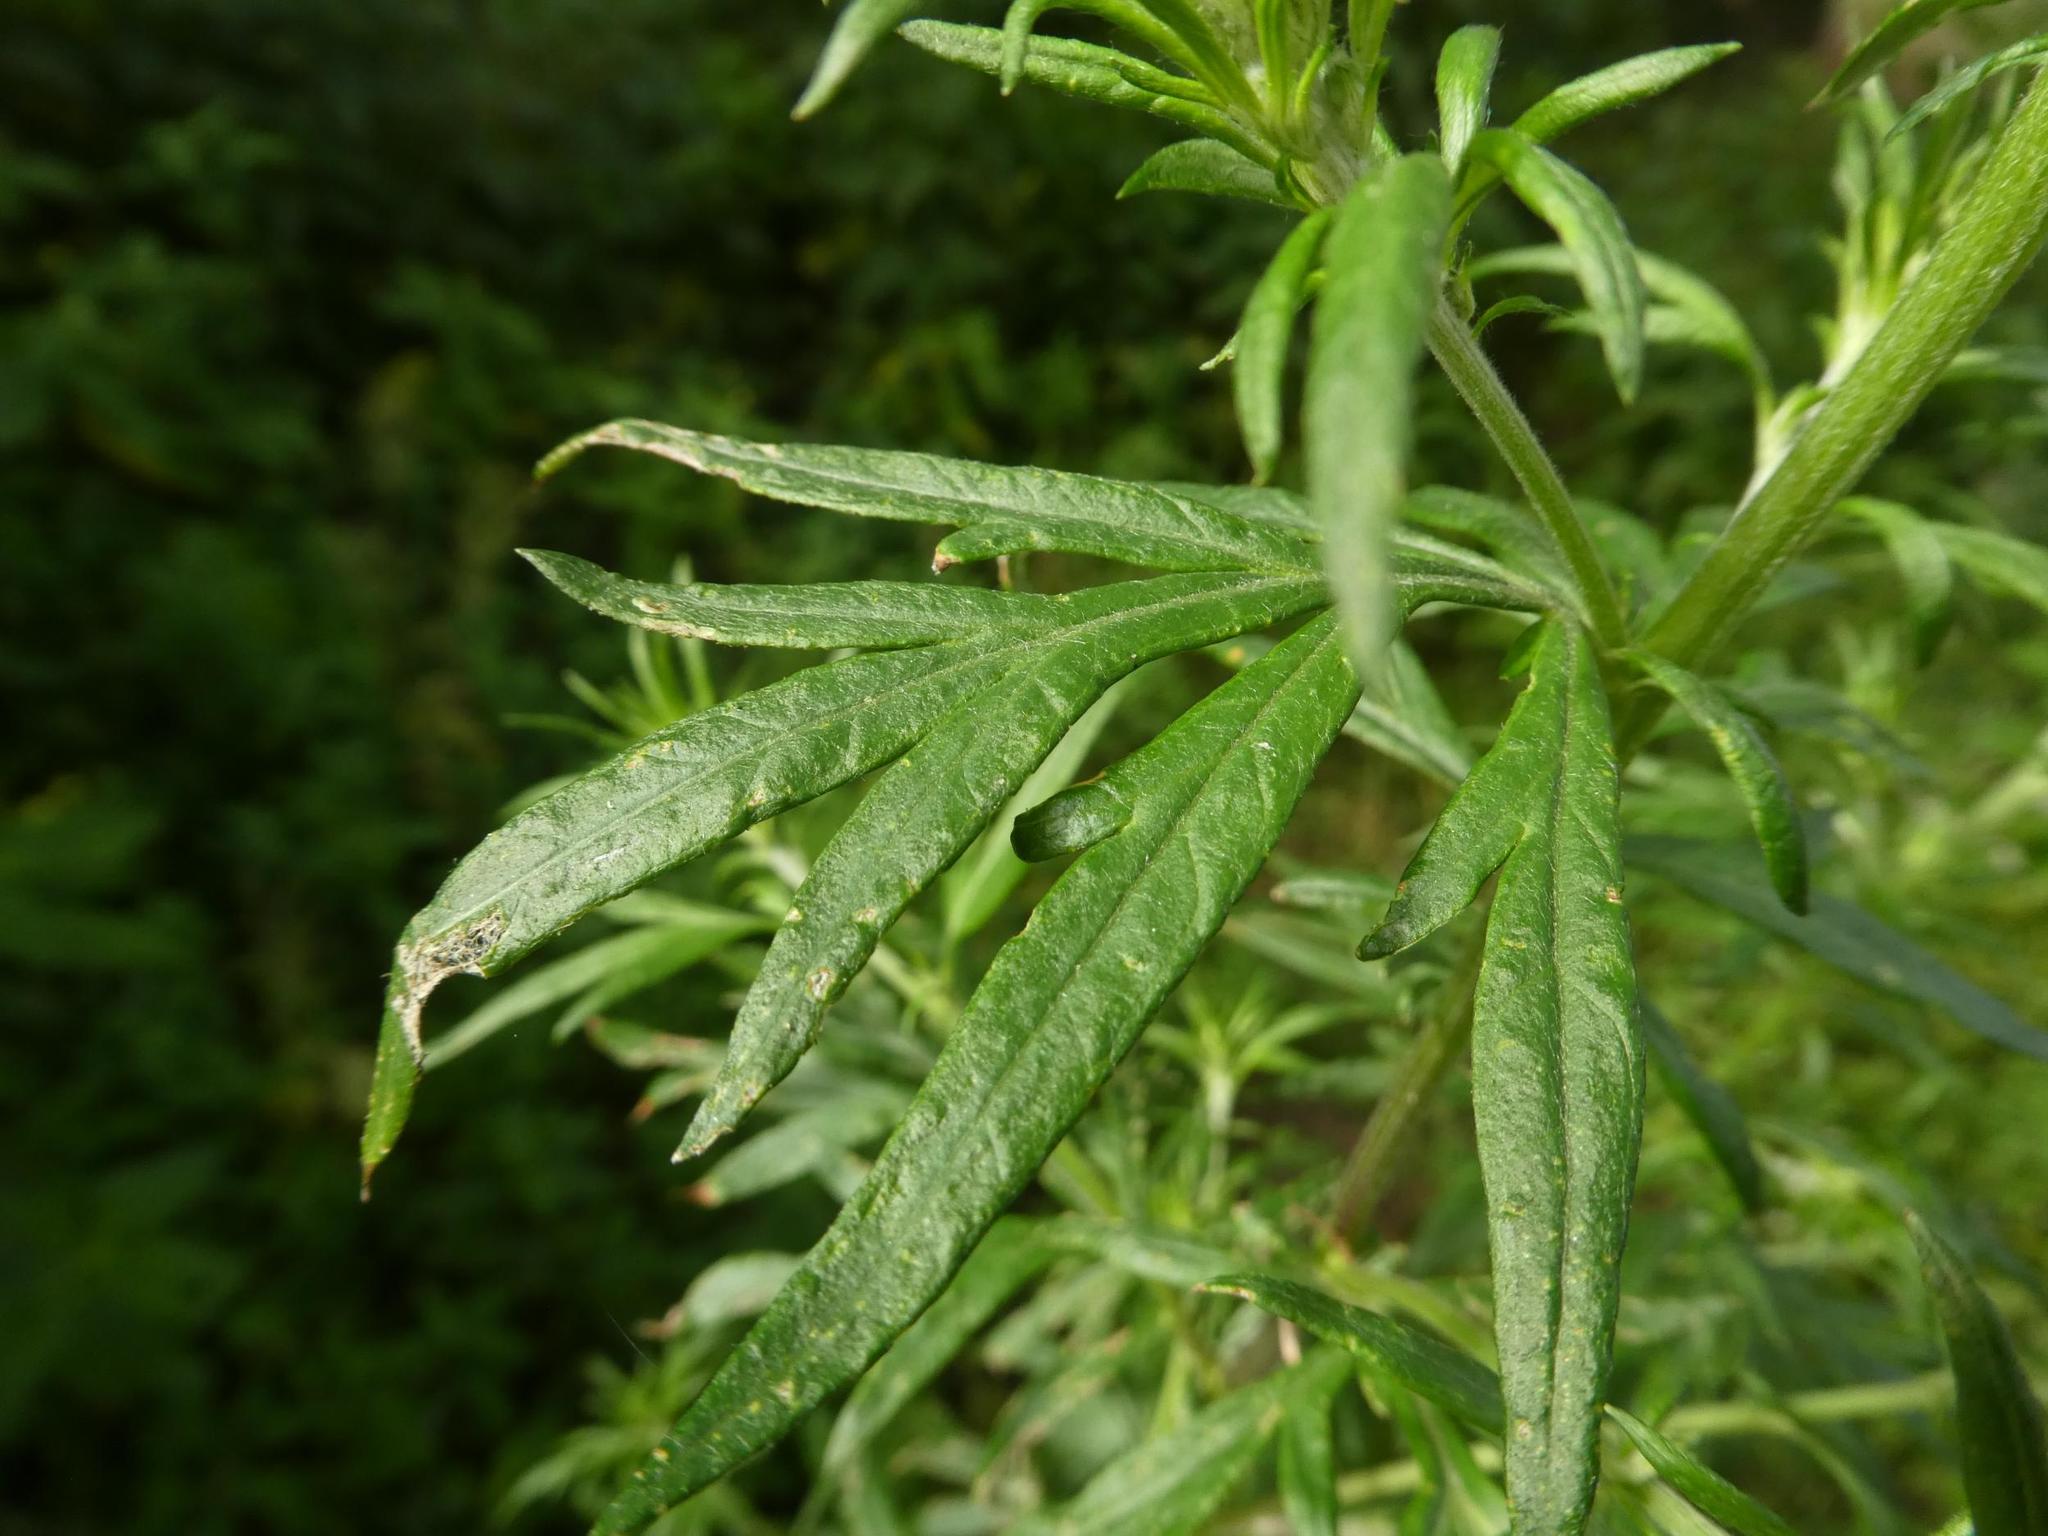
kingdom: Plantae
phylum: Tracheophyta
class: Magnoliopsida
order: Asterales
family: Asteraceae
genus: Artemisia
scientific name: Artemisia vulgaris
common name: Mugwort
